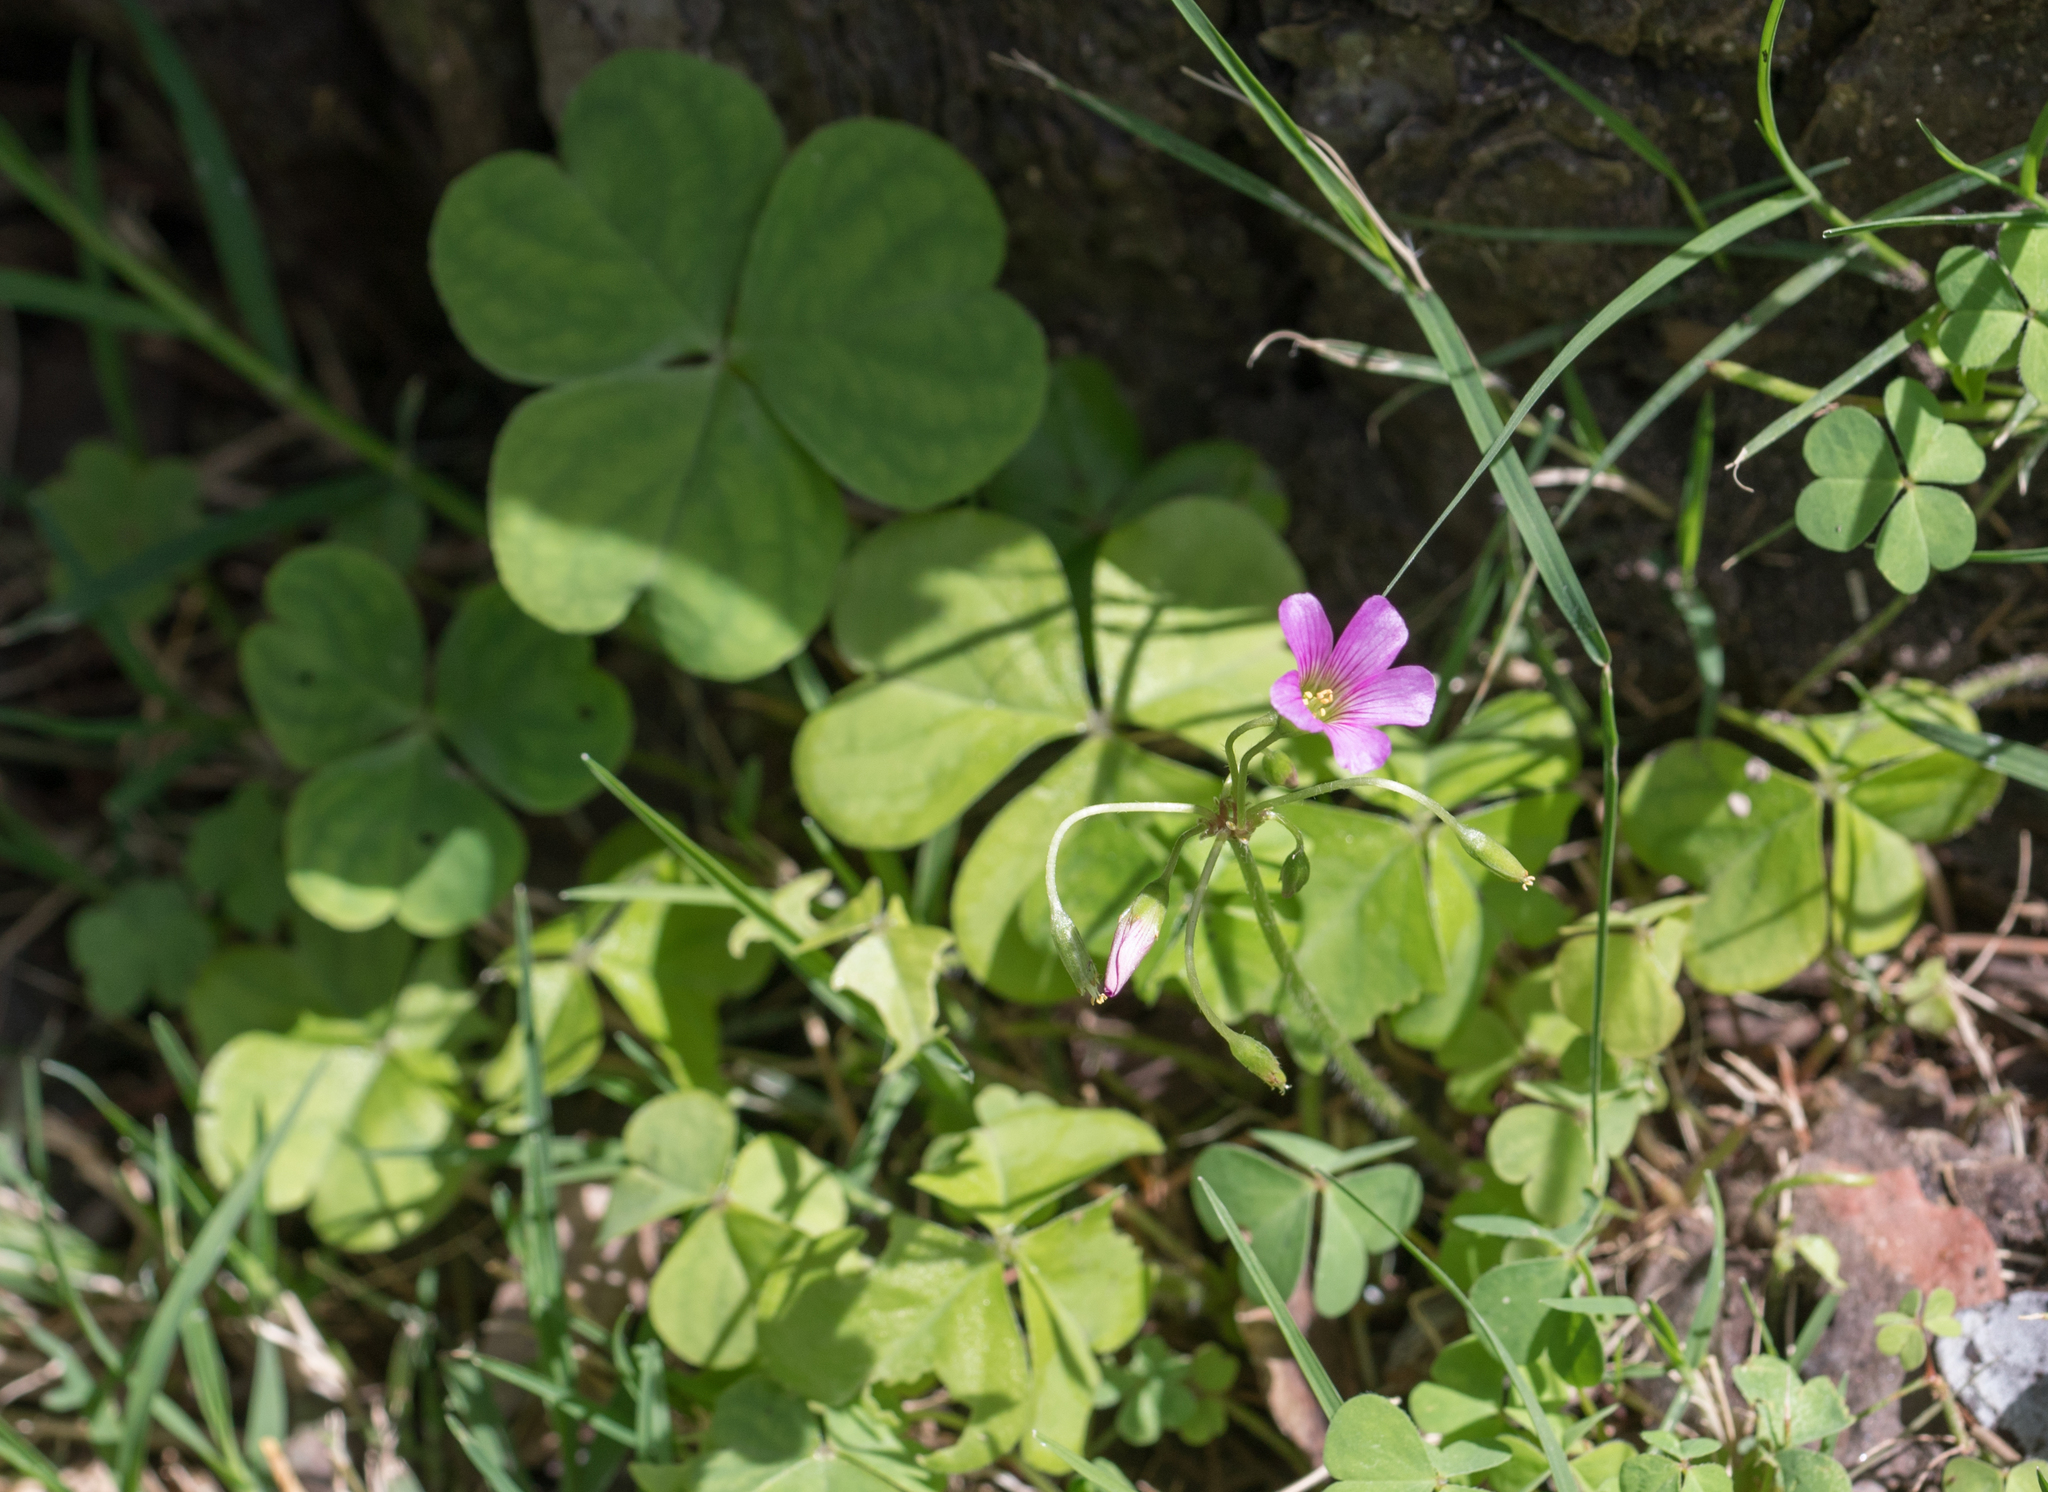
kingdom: Plantae
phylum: Tracheophyta
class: Magnoliopsida
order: Oxalidales
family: Oxalidaceae
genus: Oxalis
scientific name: Oxalis debilis
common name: Large-flowered pink-sorrel
